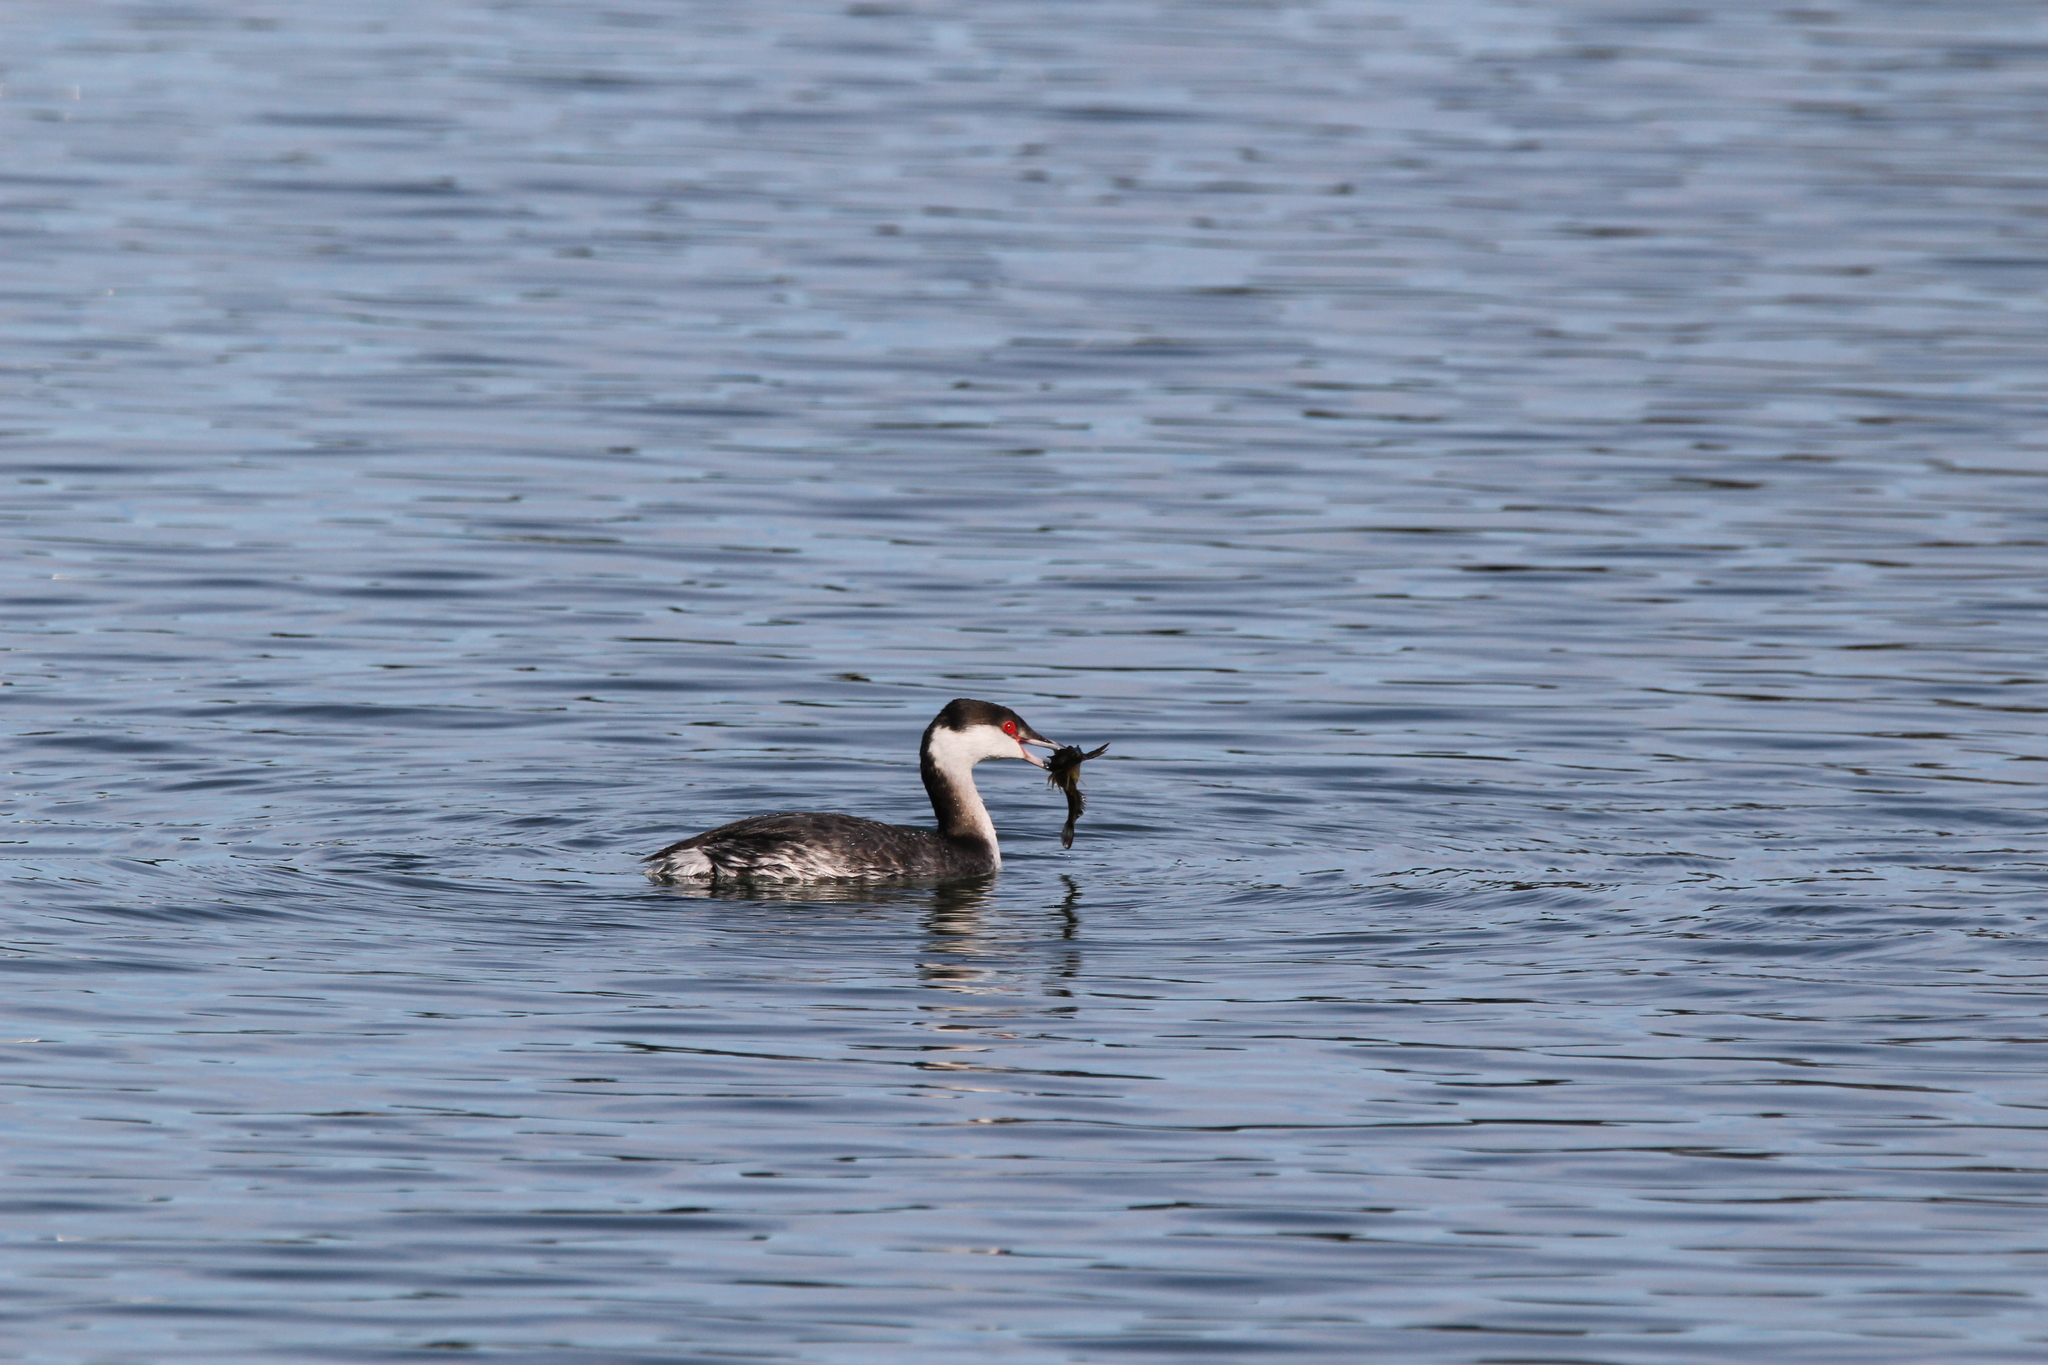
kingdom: Animalia
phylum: Chordata
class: Aves
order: Podicipediformes
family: Podicipedidae
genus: Podiceps
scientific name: Podiceps auritus
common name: Horned grebe
